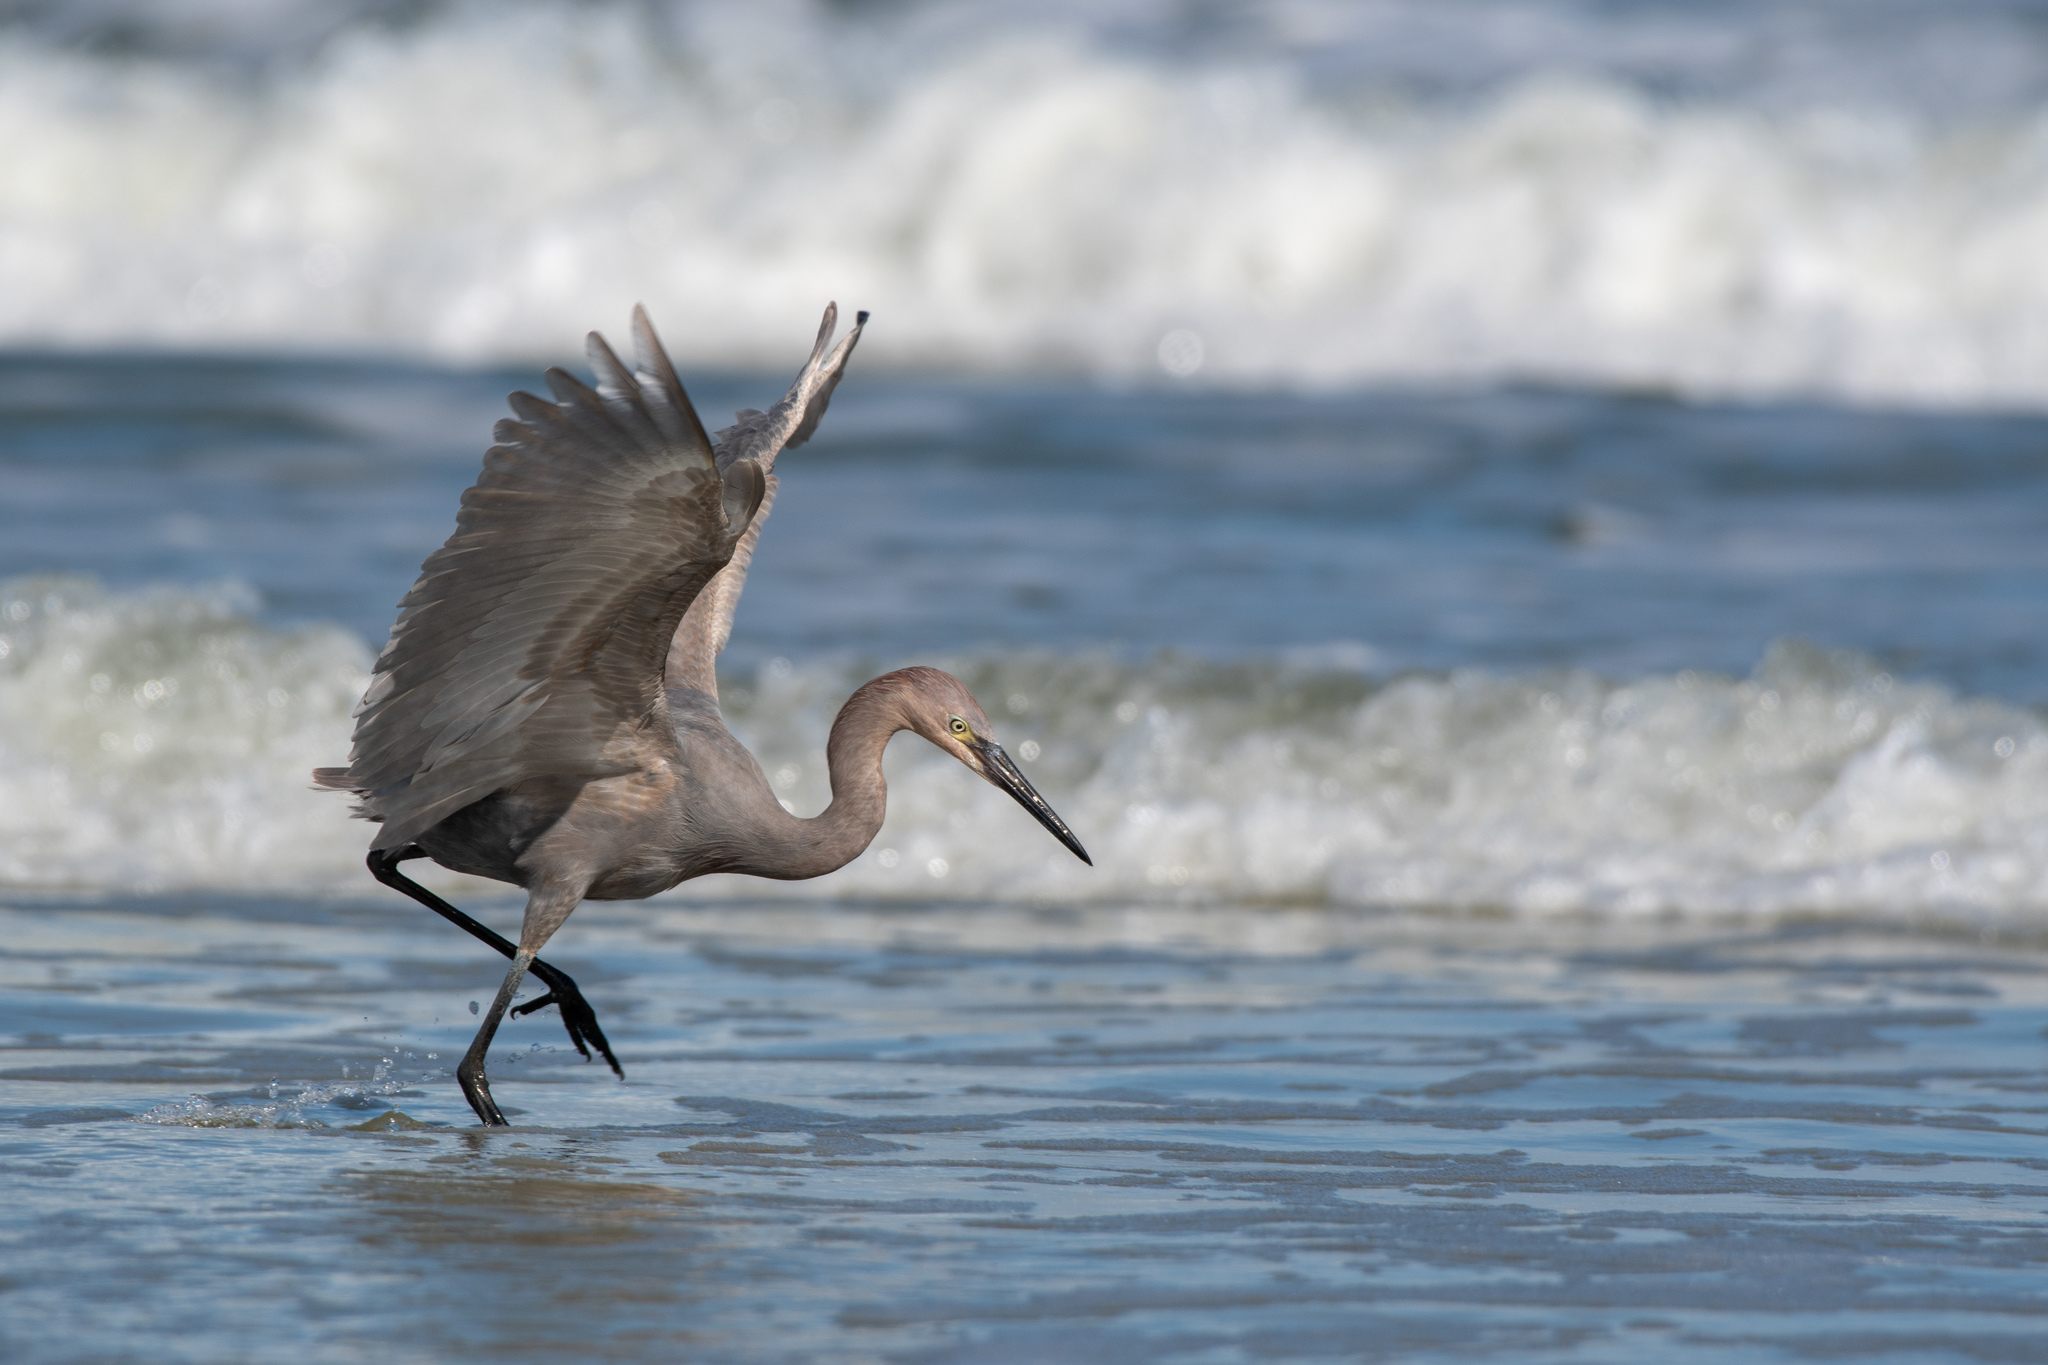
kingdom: Animalia
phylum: Chordata
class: Aves
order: Pelecaniformes
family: Ardeidae
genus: Egretta
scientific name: Egretta rufescens
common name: Reddish egret
